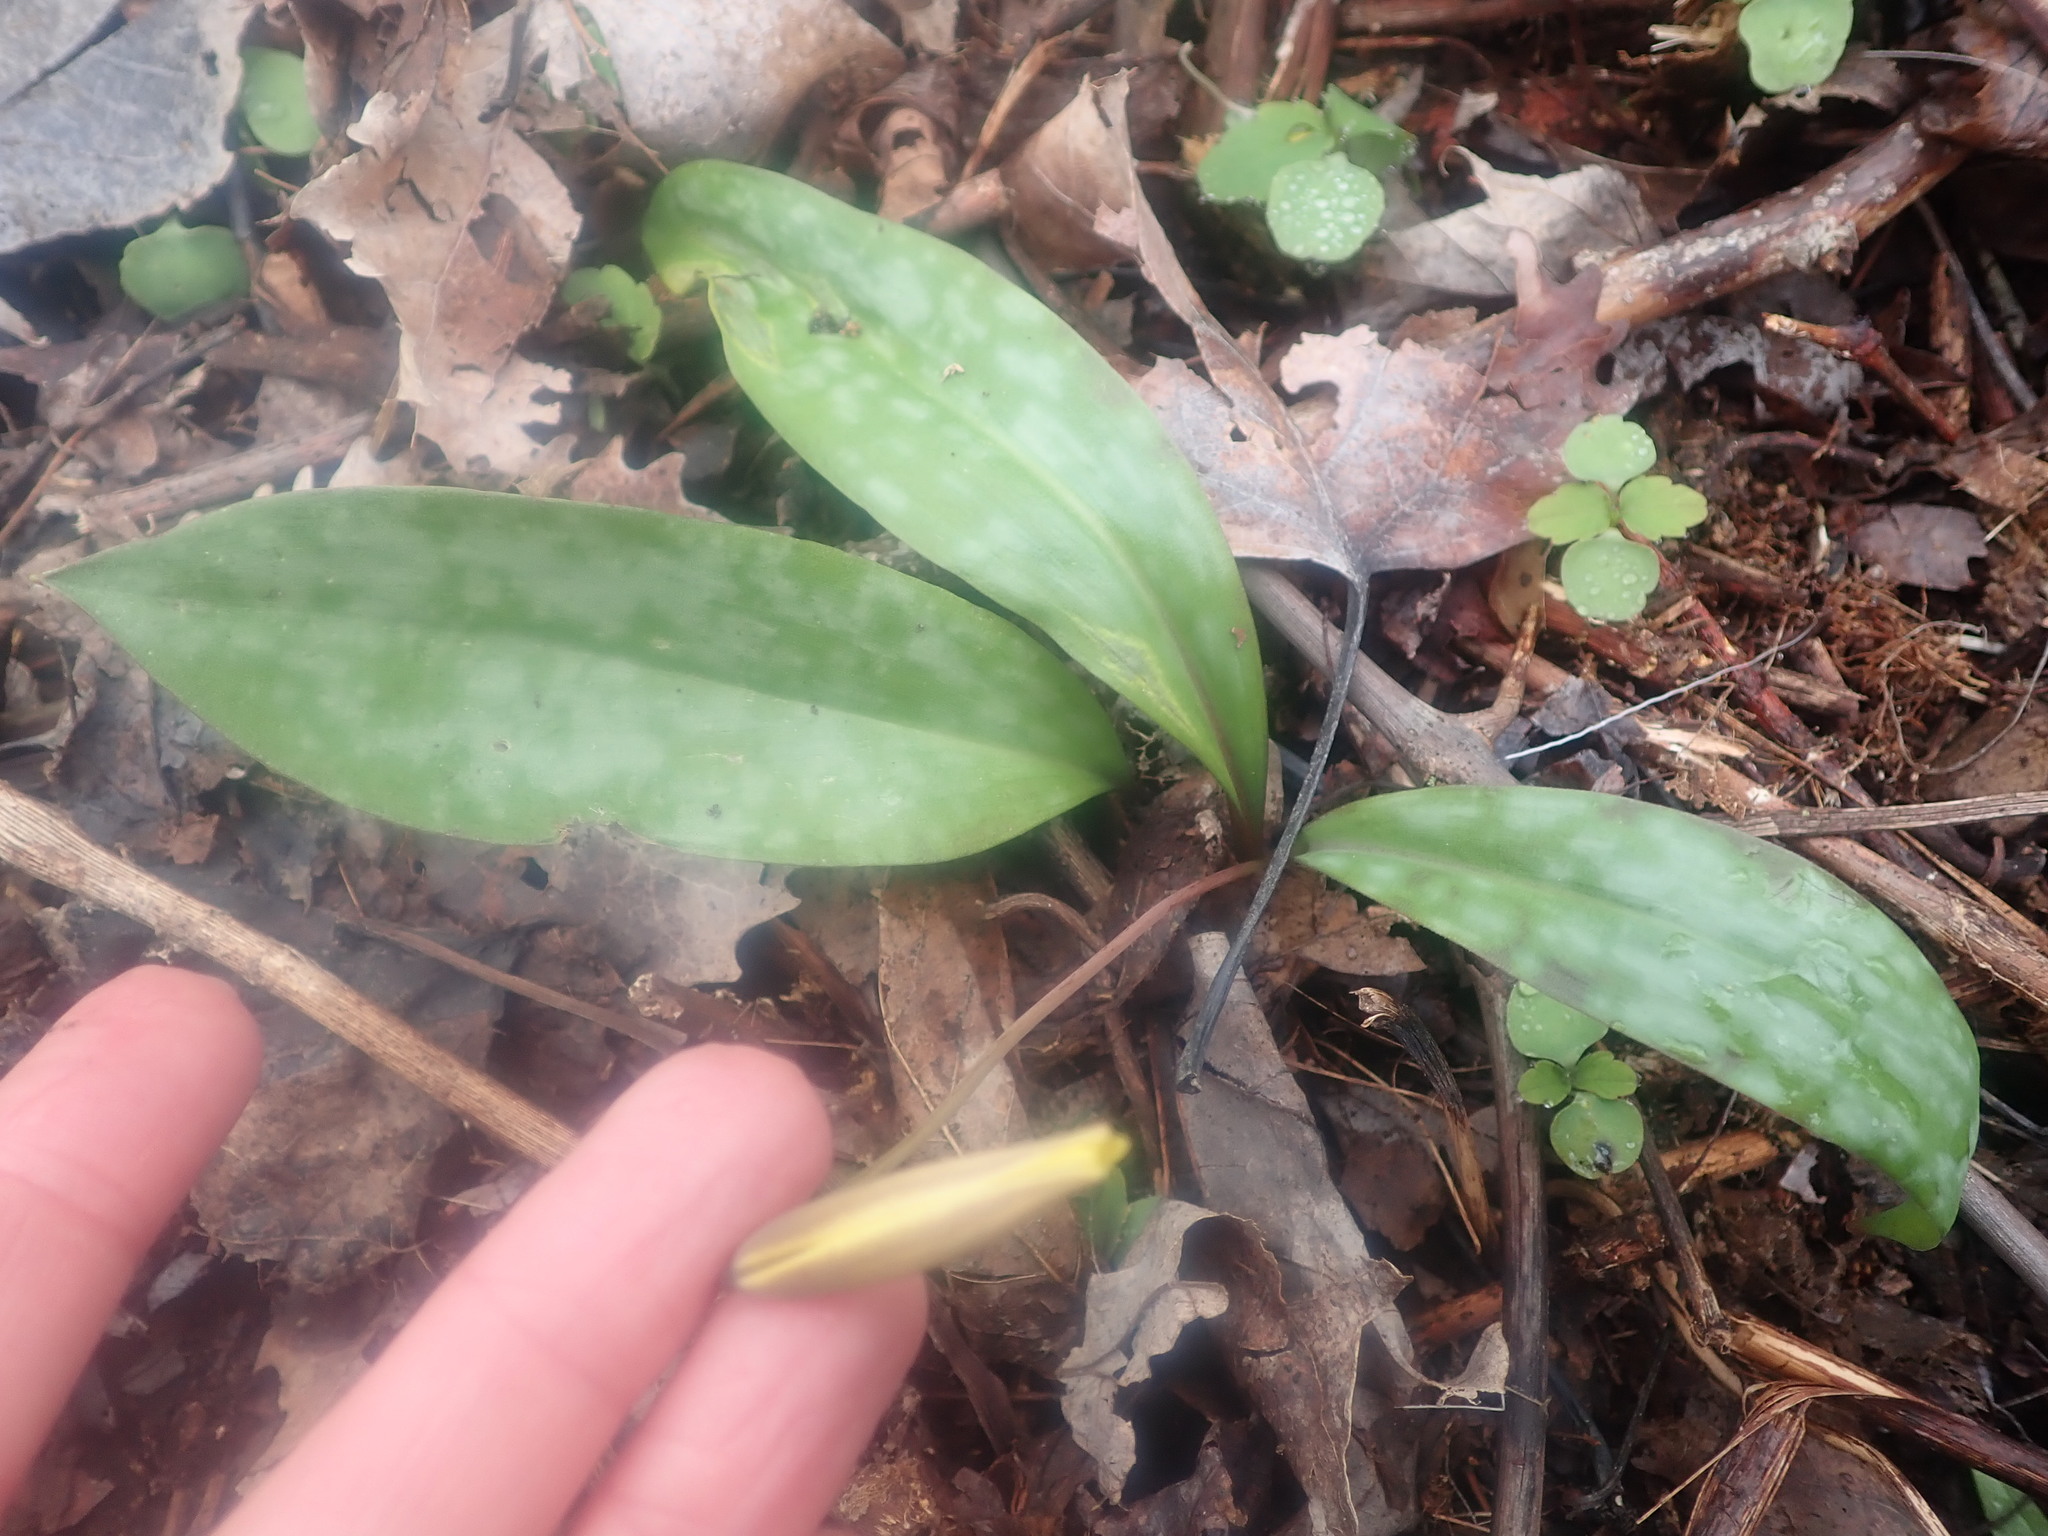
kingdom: Plantae
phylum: Tracheophyta
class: Liliopsida
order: Liliales
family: Liliaceae
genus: Erythronium
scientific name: Erythronium americanum
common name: Yellow adder's-tongue
